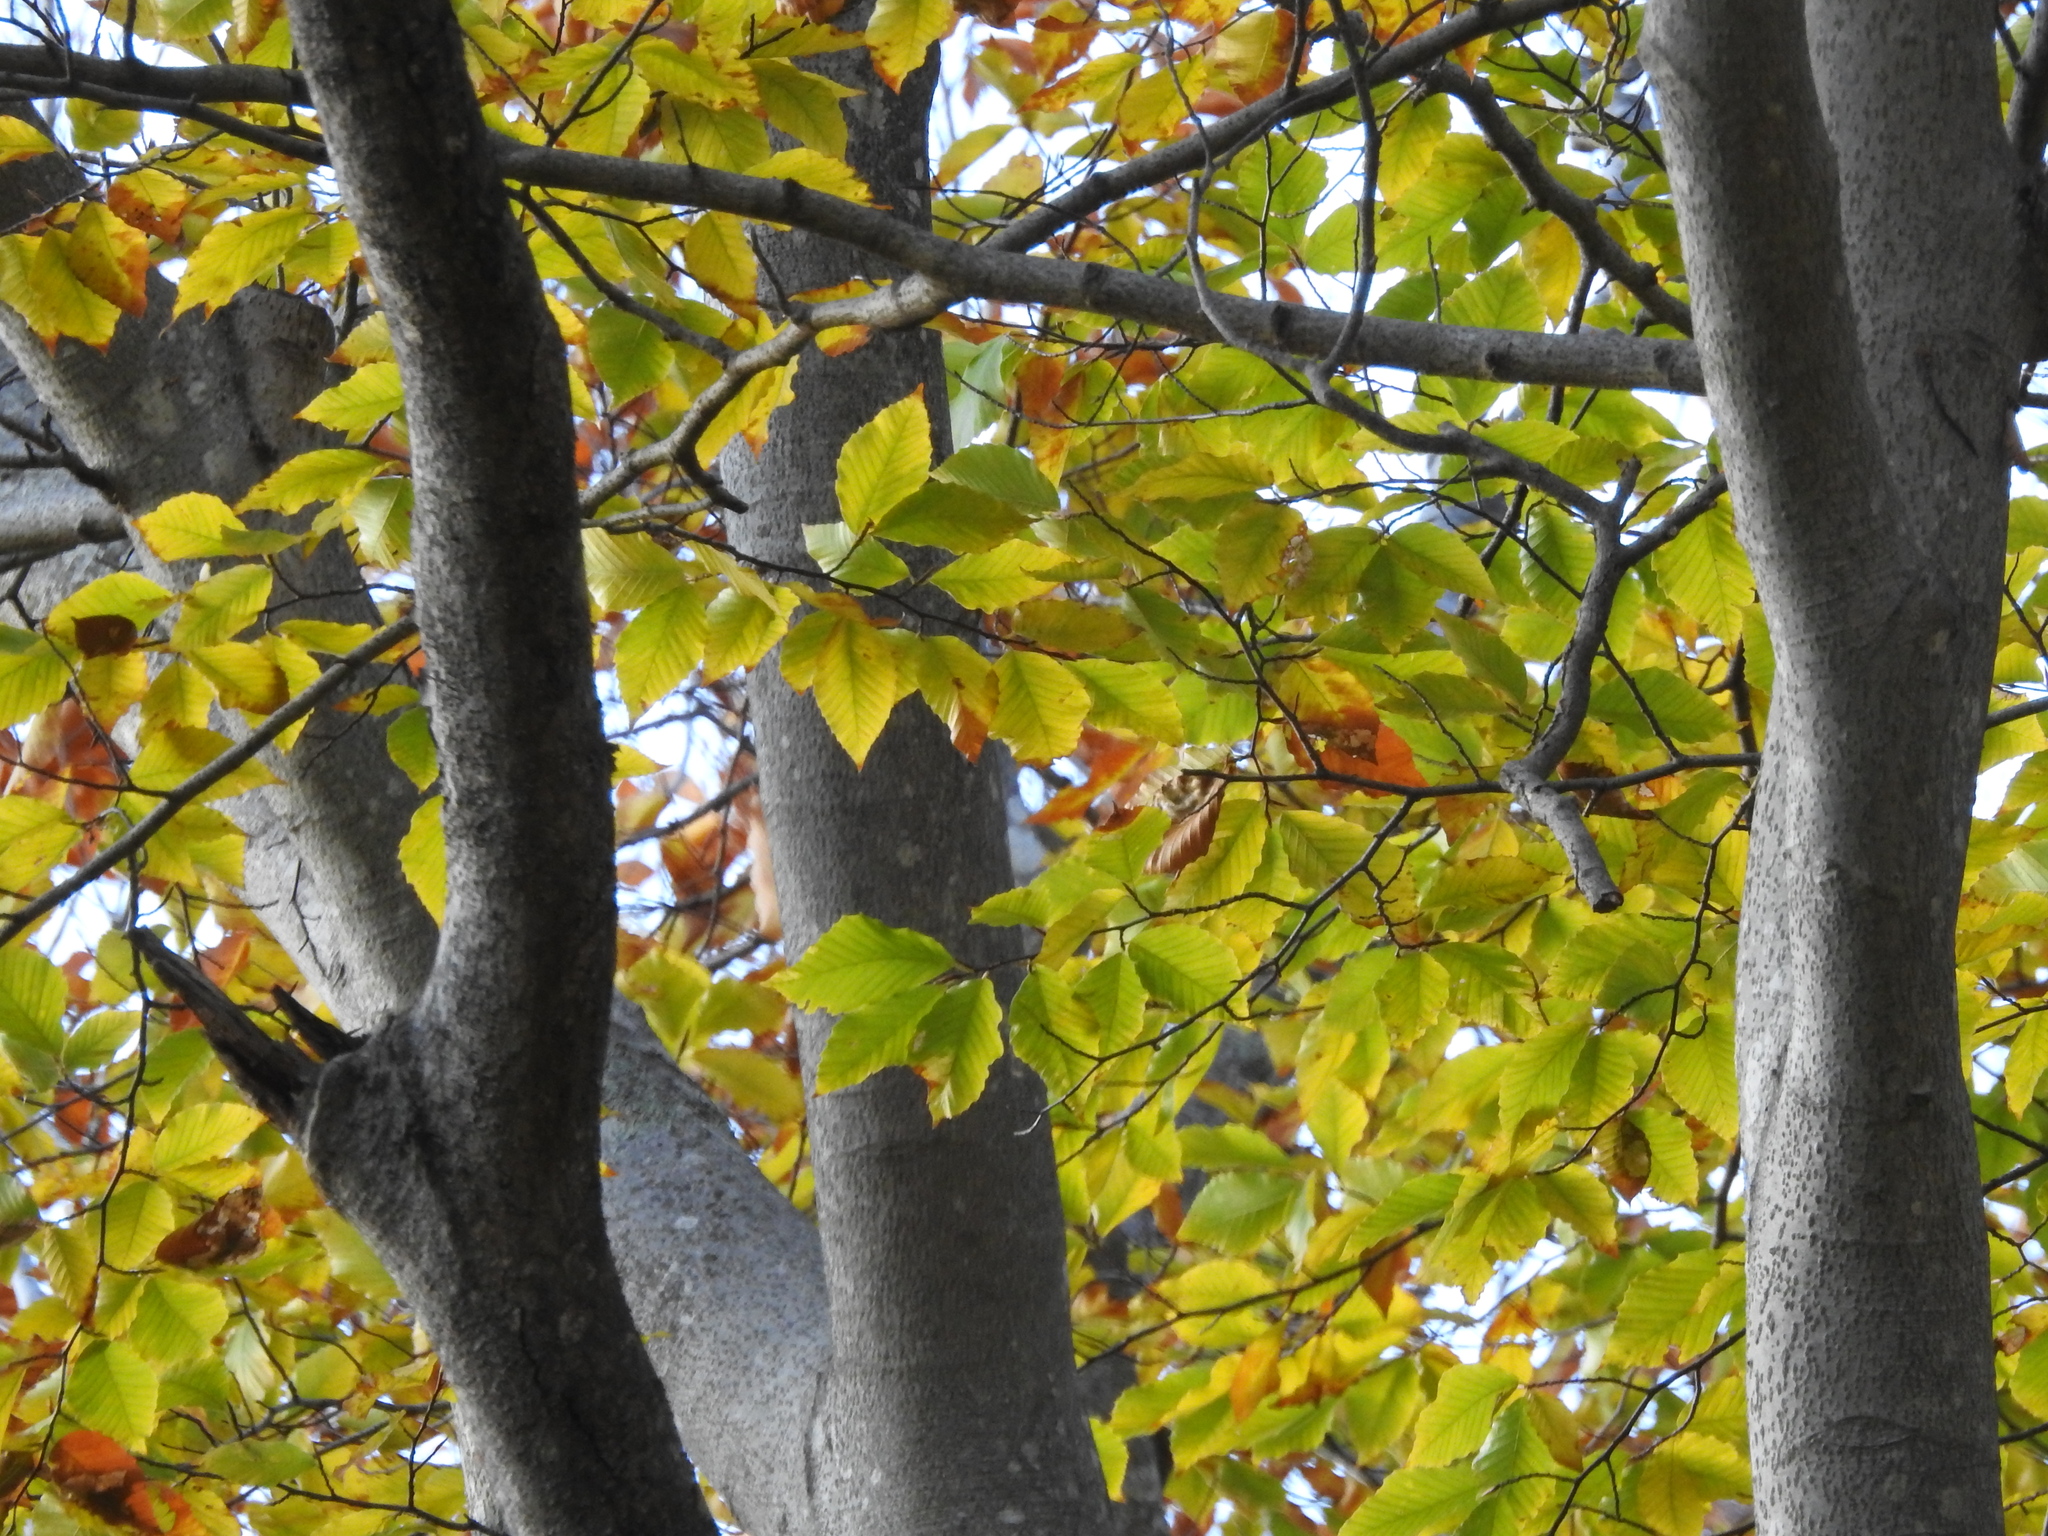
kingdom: Plantae
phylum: Tracheophyta
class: Magnoliopsida
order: Fagales
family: Fagaceae
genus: Fagus
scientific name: Fagus grandifolia
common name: American beech
